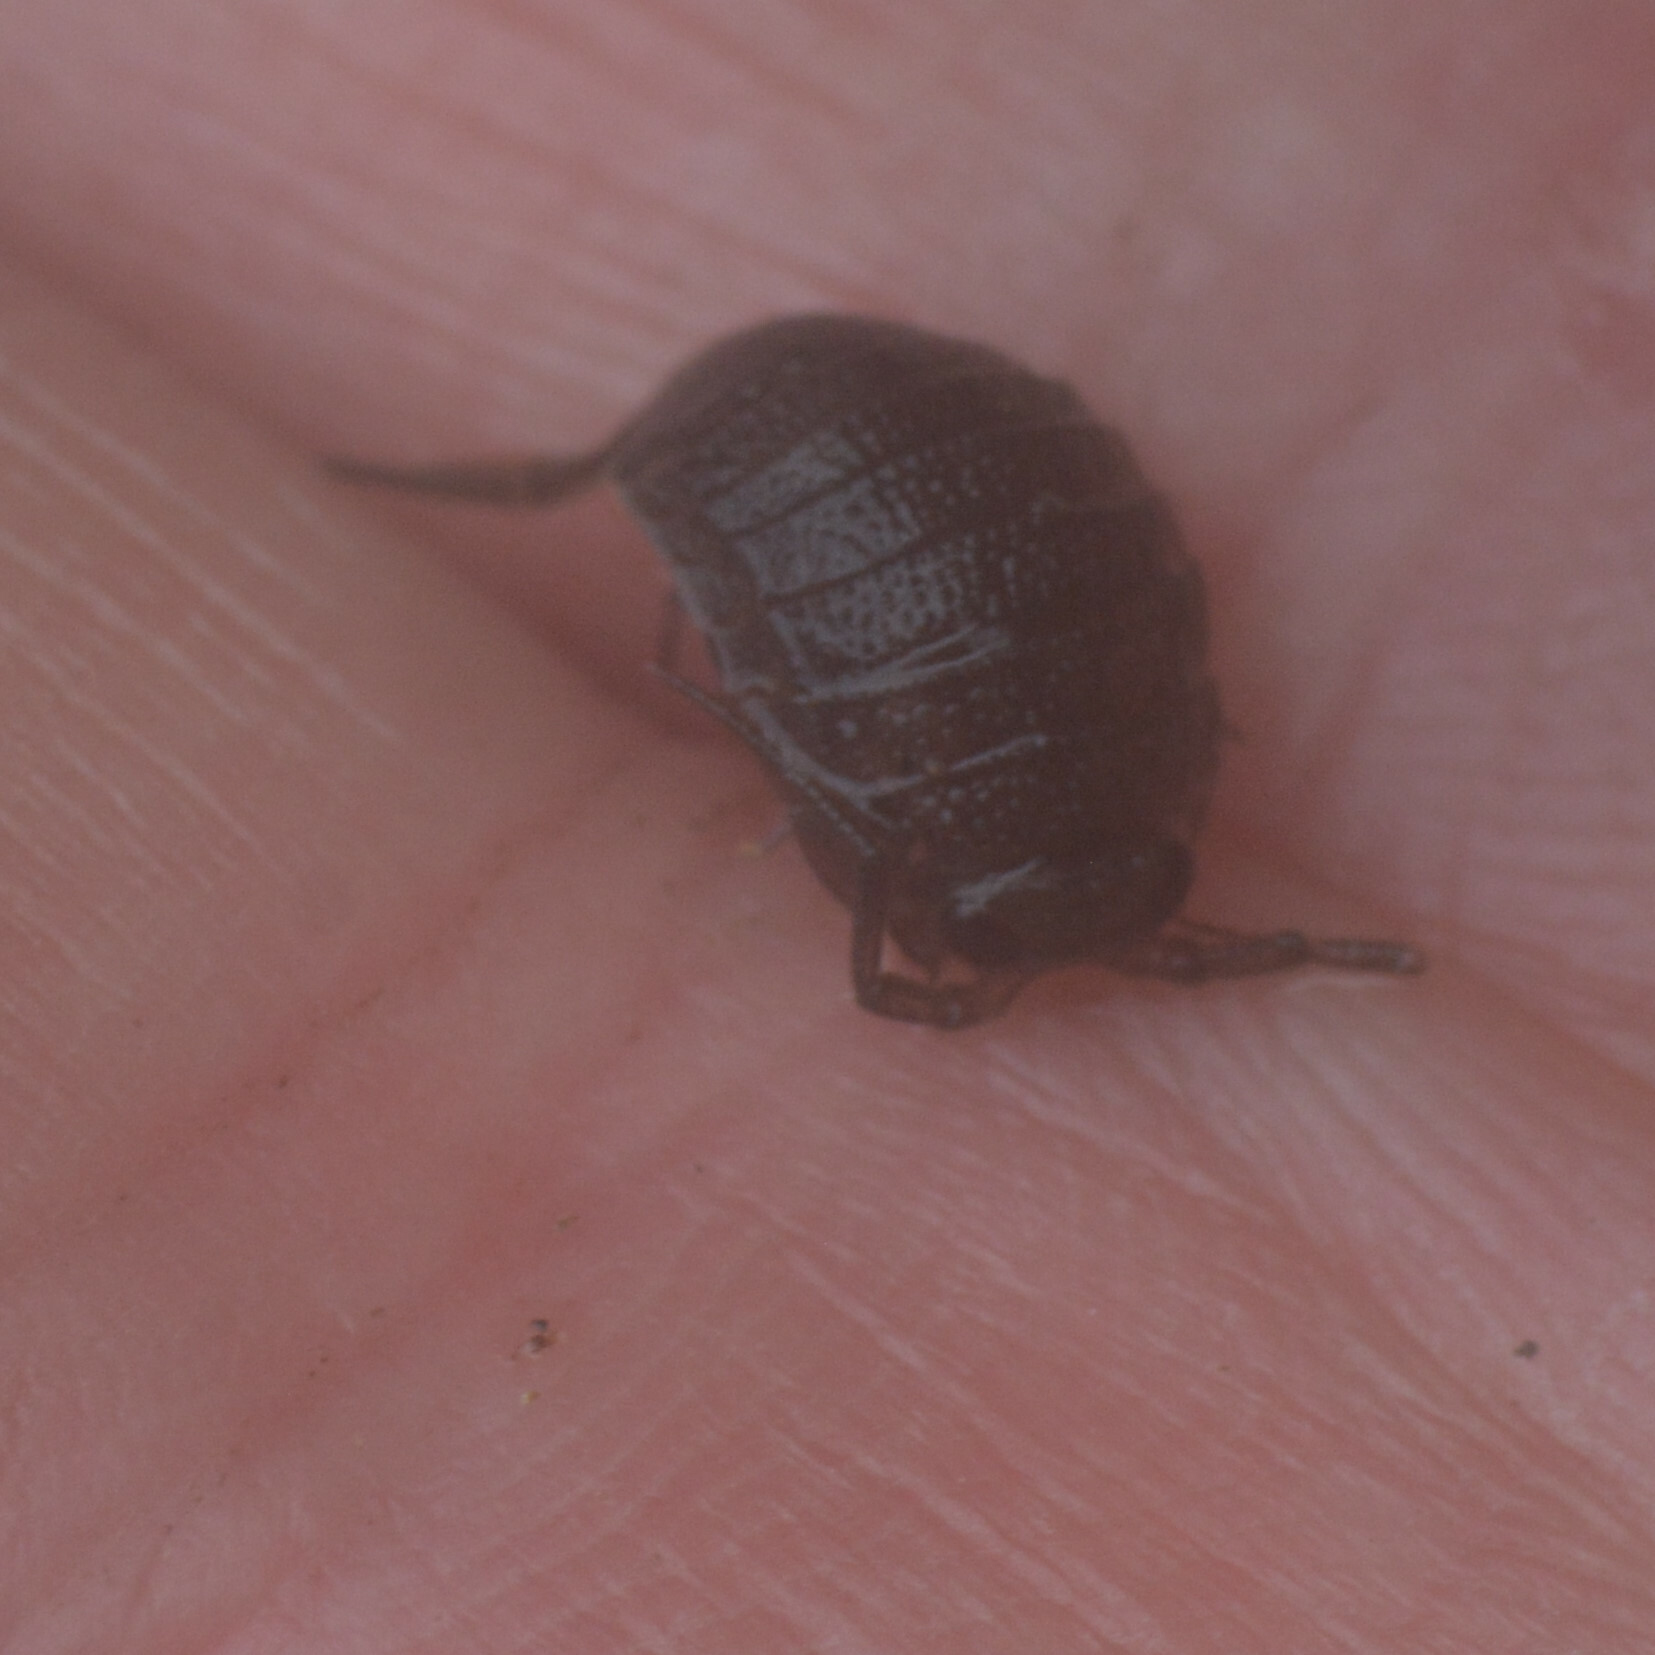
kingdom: Animalia
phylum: Arthropoda
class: Malacostraca
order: Isopoda
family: Ligiidae
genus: Ligia
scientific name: Ligia oceanica
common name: Sea slater
